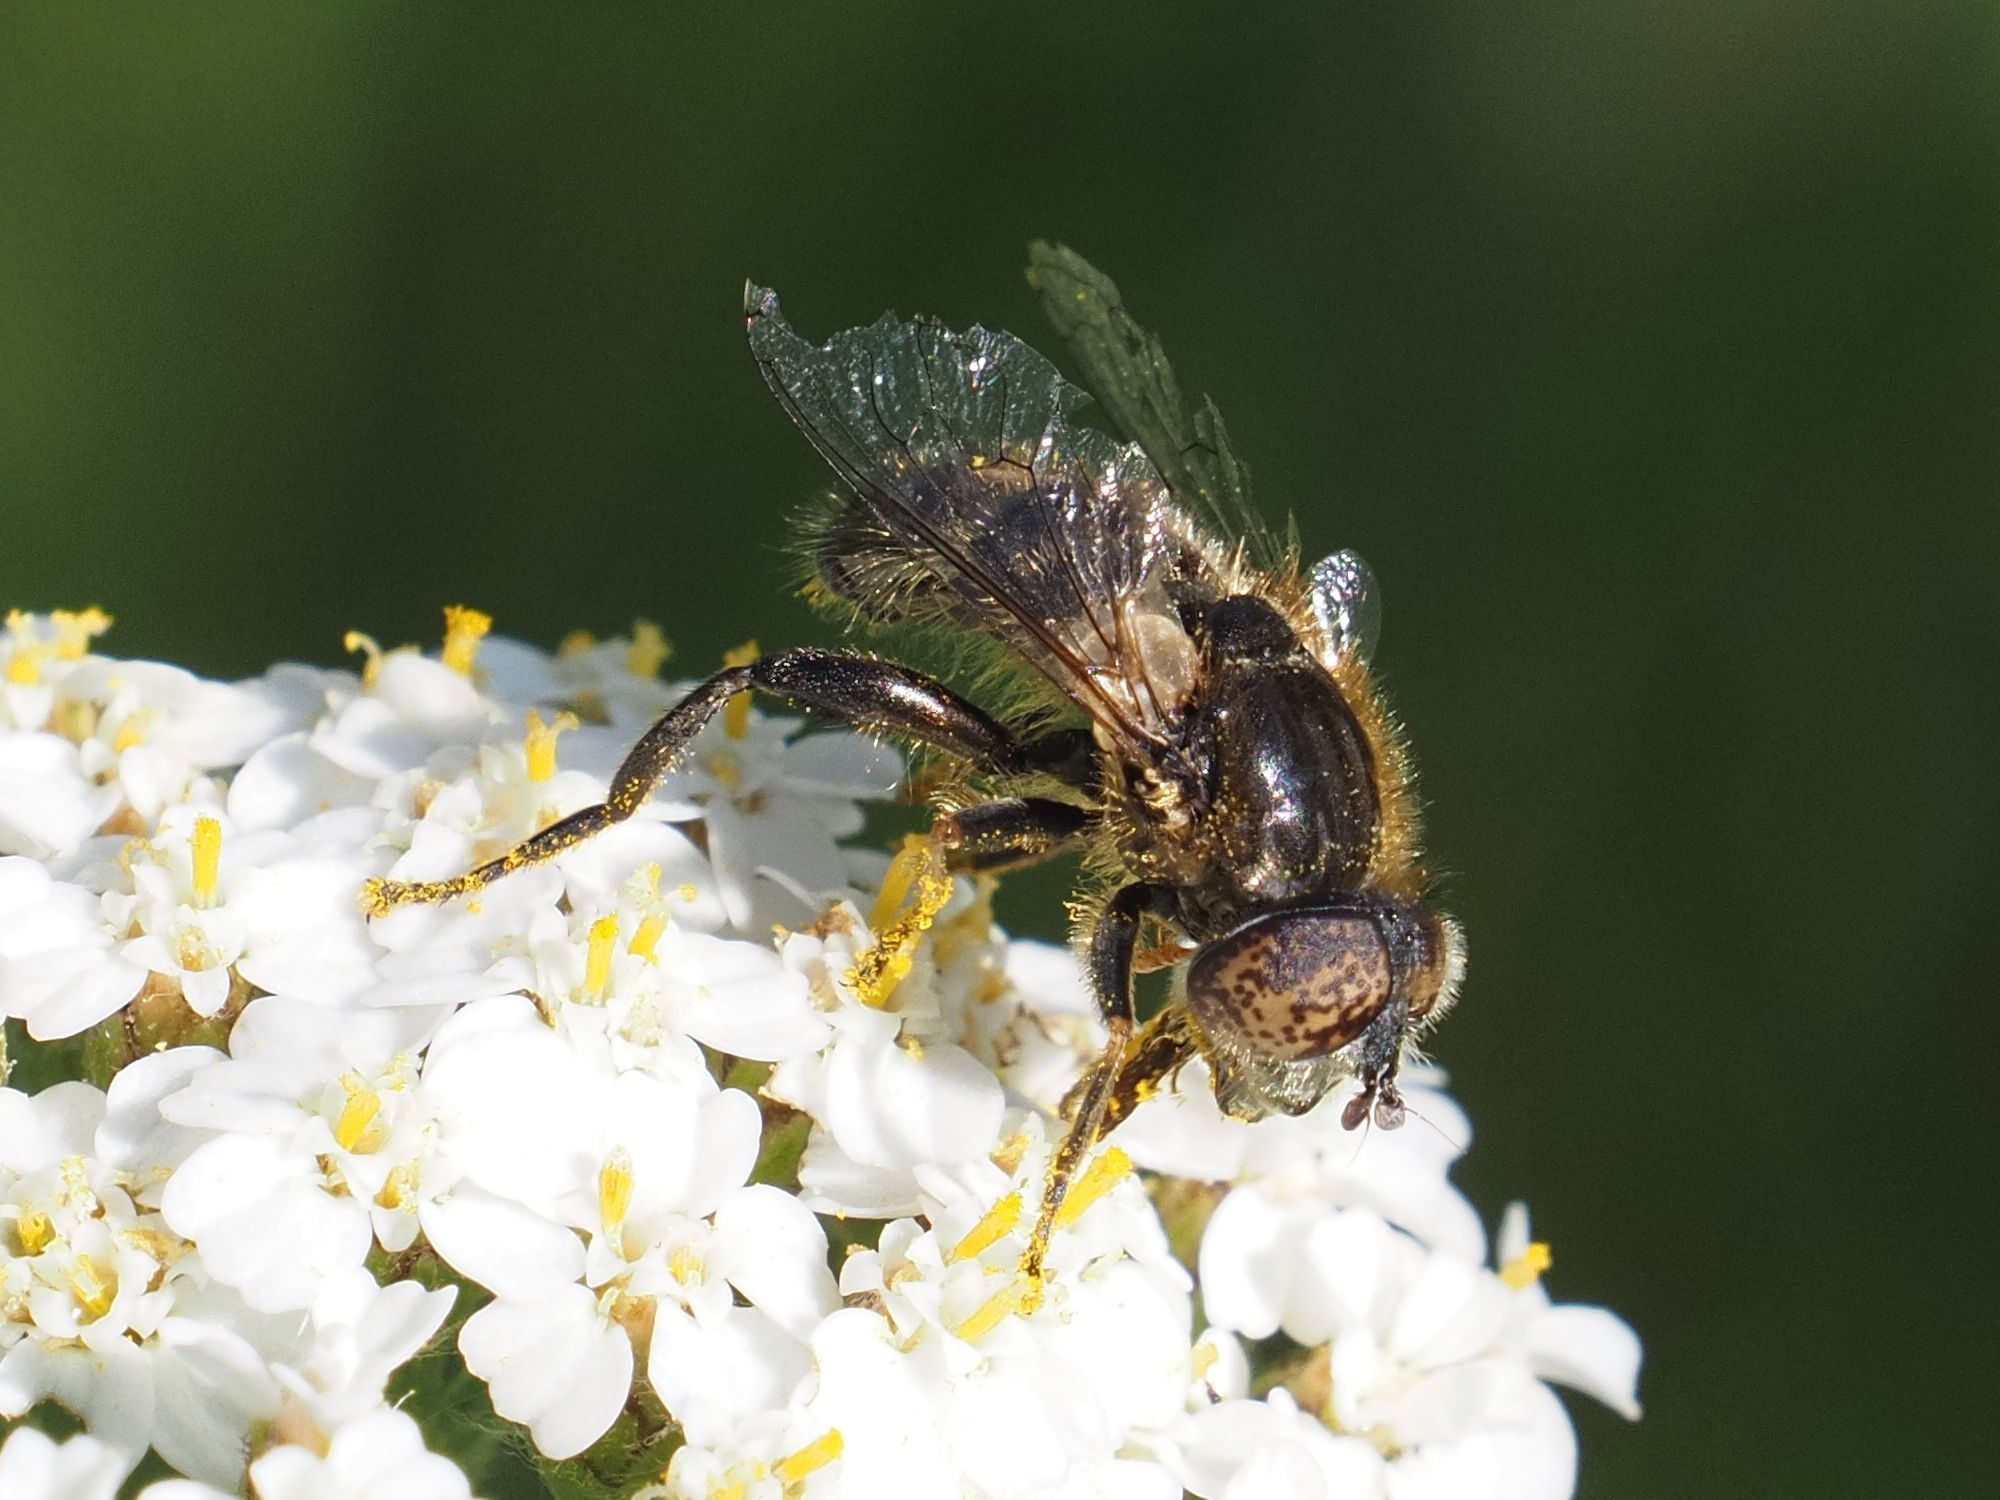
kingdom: Animalia
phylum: Arthropoda
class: Insecta
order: Diptera
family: Syrphidae
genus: Eristalinus
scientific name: Eristalinus sepulchralis
